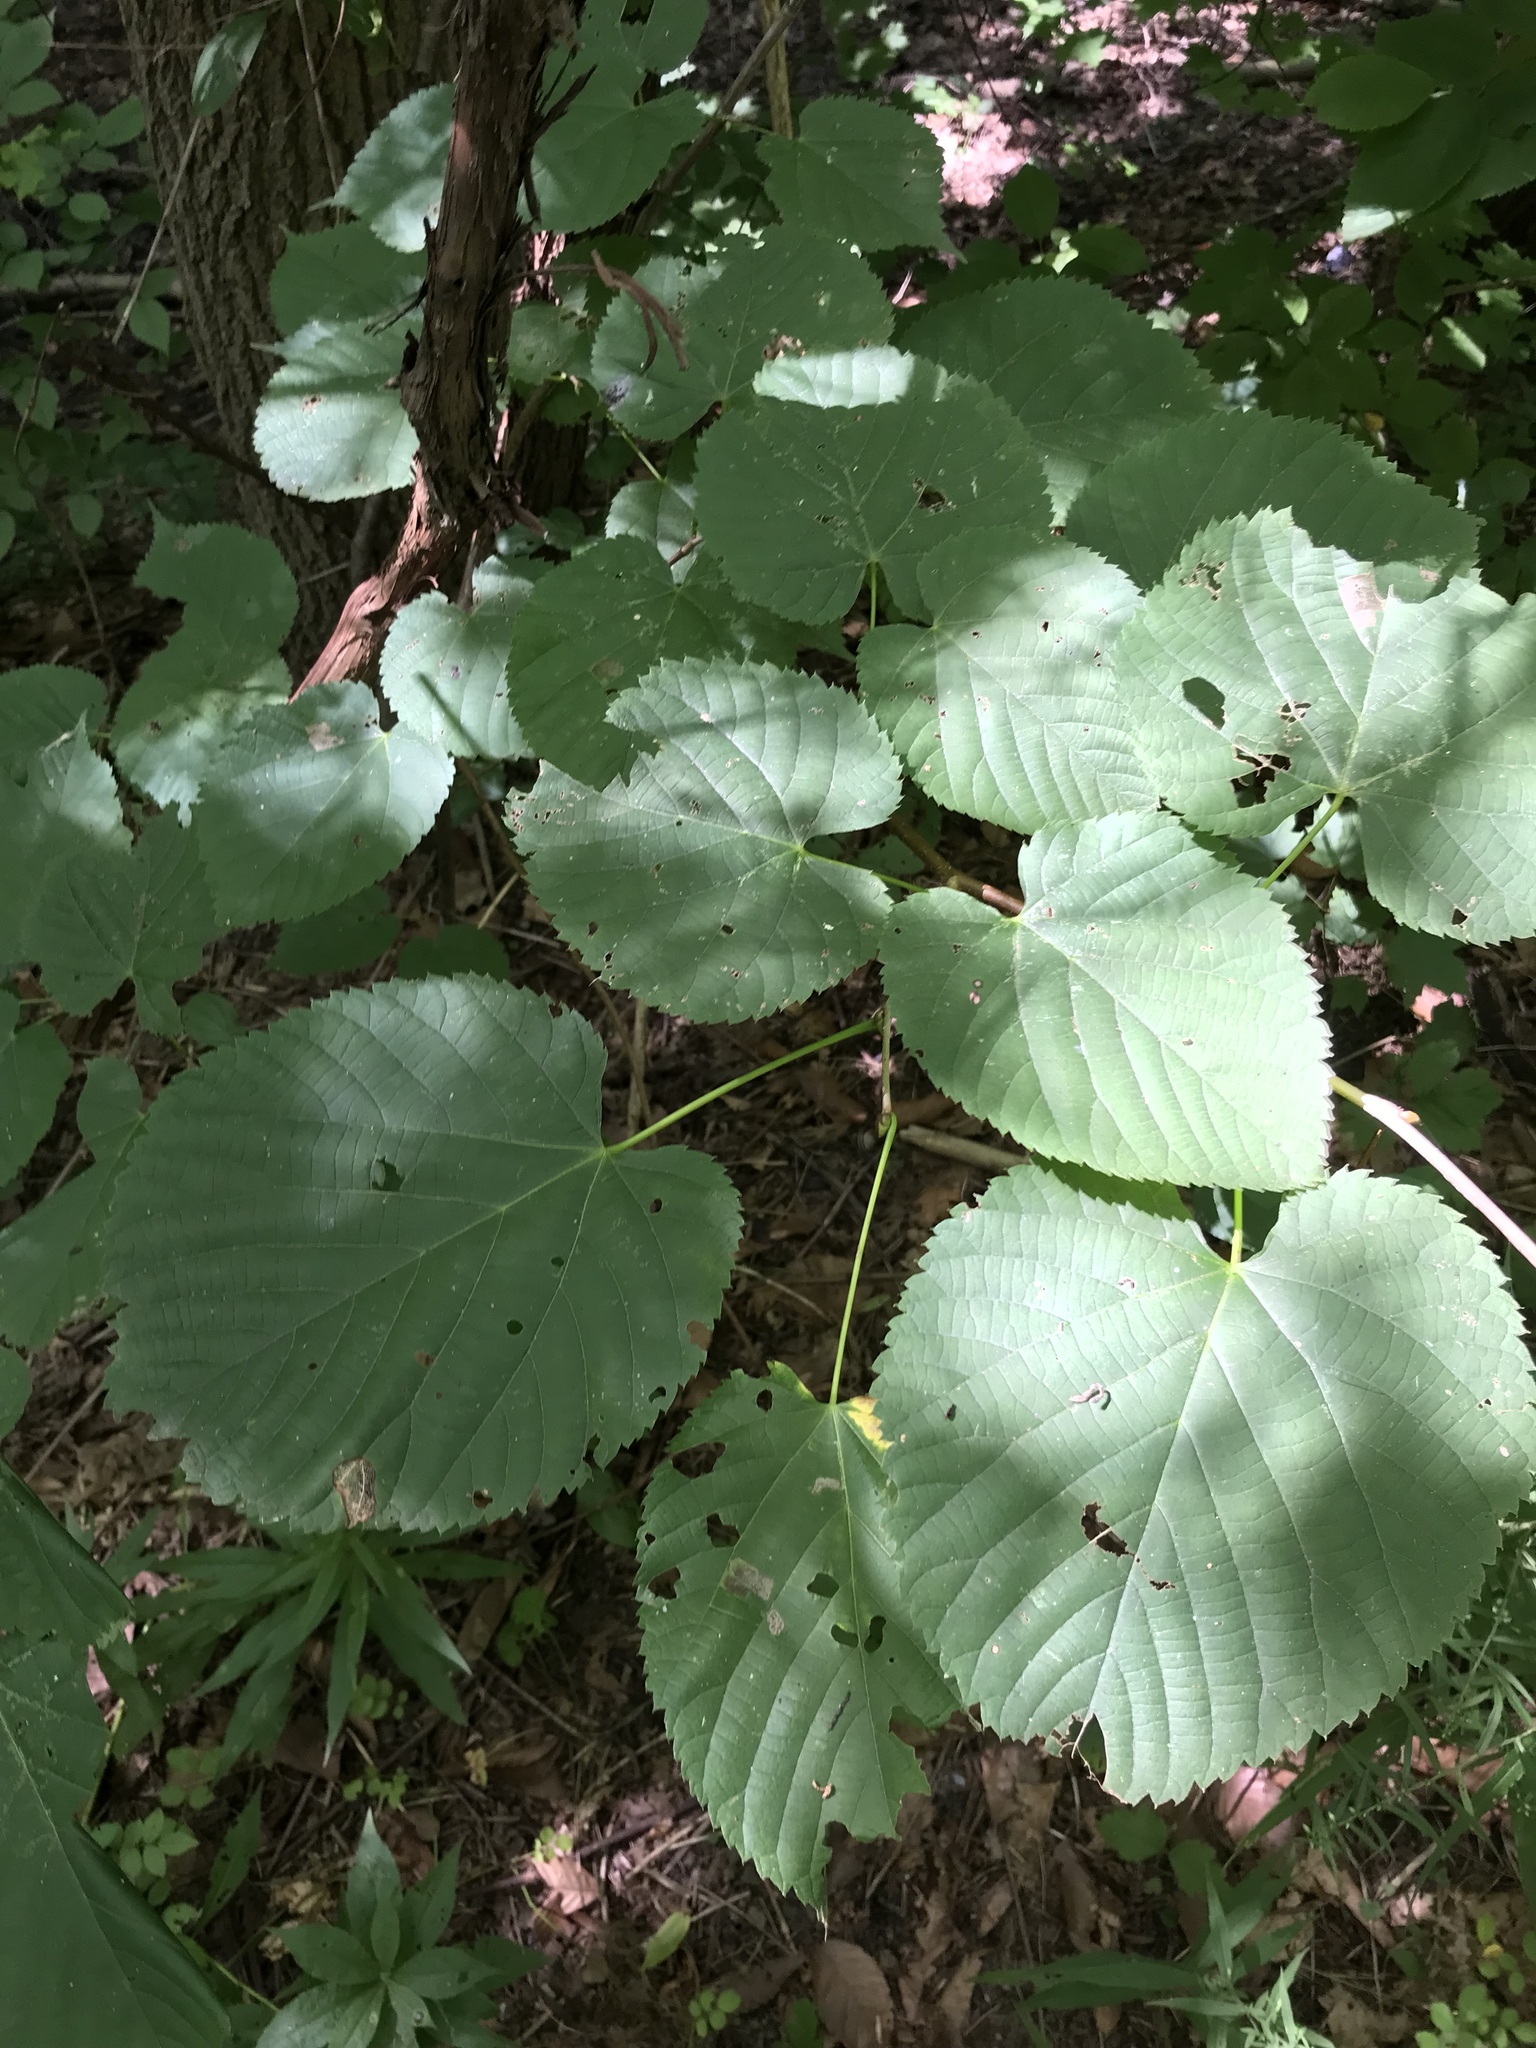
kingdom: Plantae
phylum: Tracheophyta
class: Magnoliopsida
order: Malvales
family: Malvaceae
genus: Tilia
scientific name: Tilia americana
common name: Basswood
